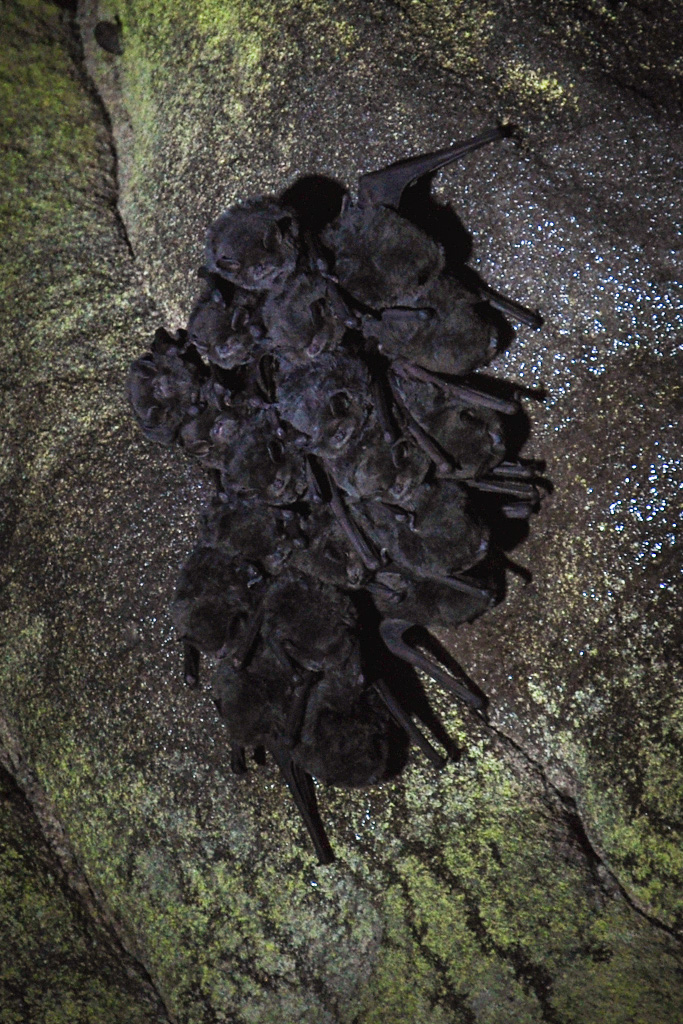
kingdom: Animalia
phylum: Chordata
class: Mammalia
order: Chiroptera
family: Miniopteridae
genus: Miniopterus
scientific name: Miniopterus natalensis
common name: Natal long-fingered bat
